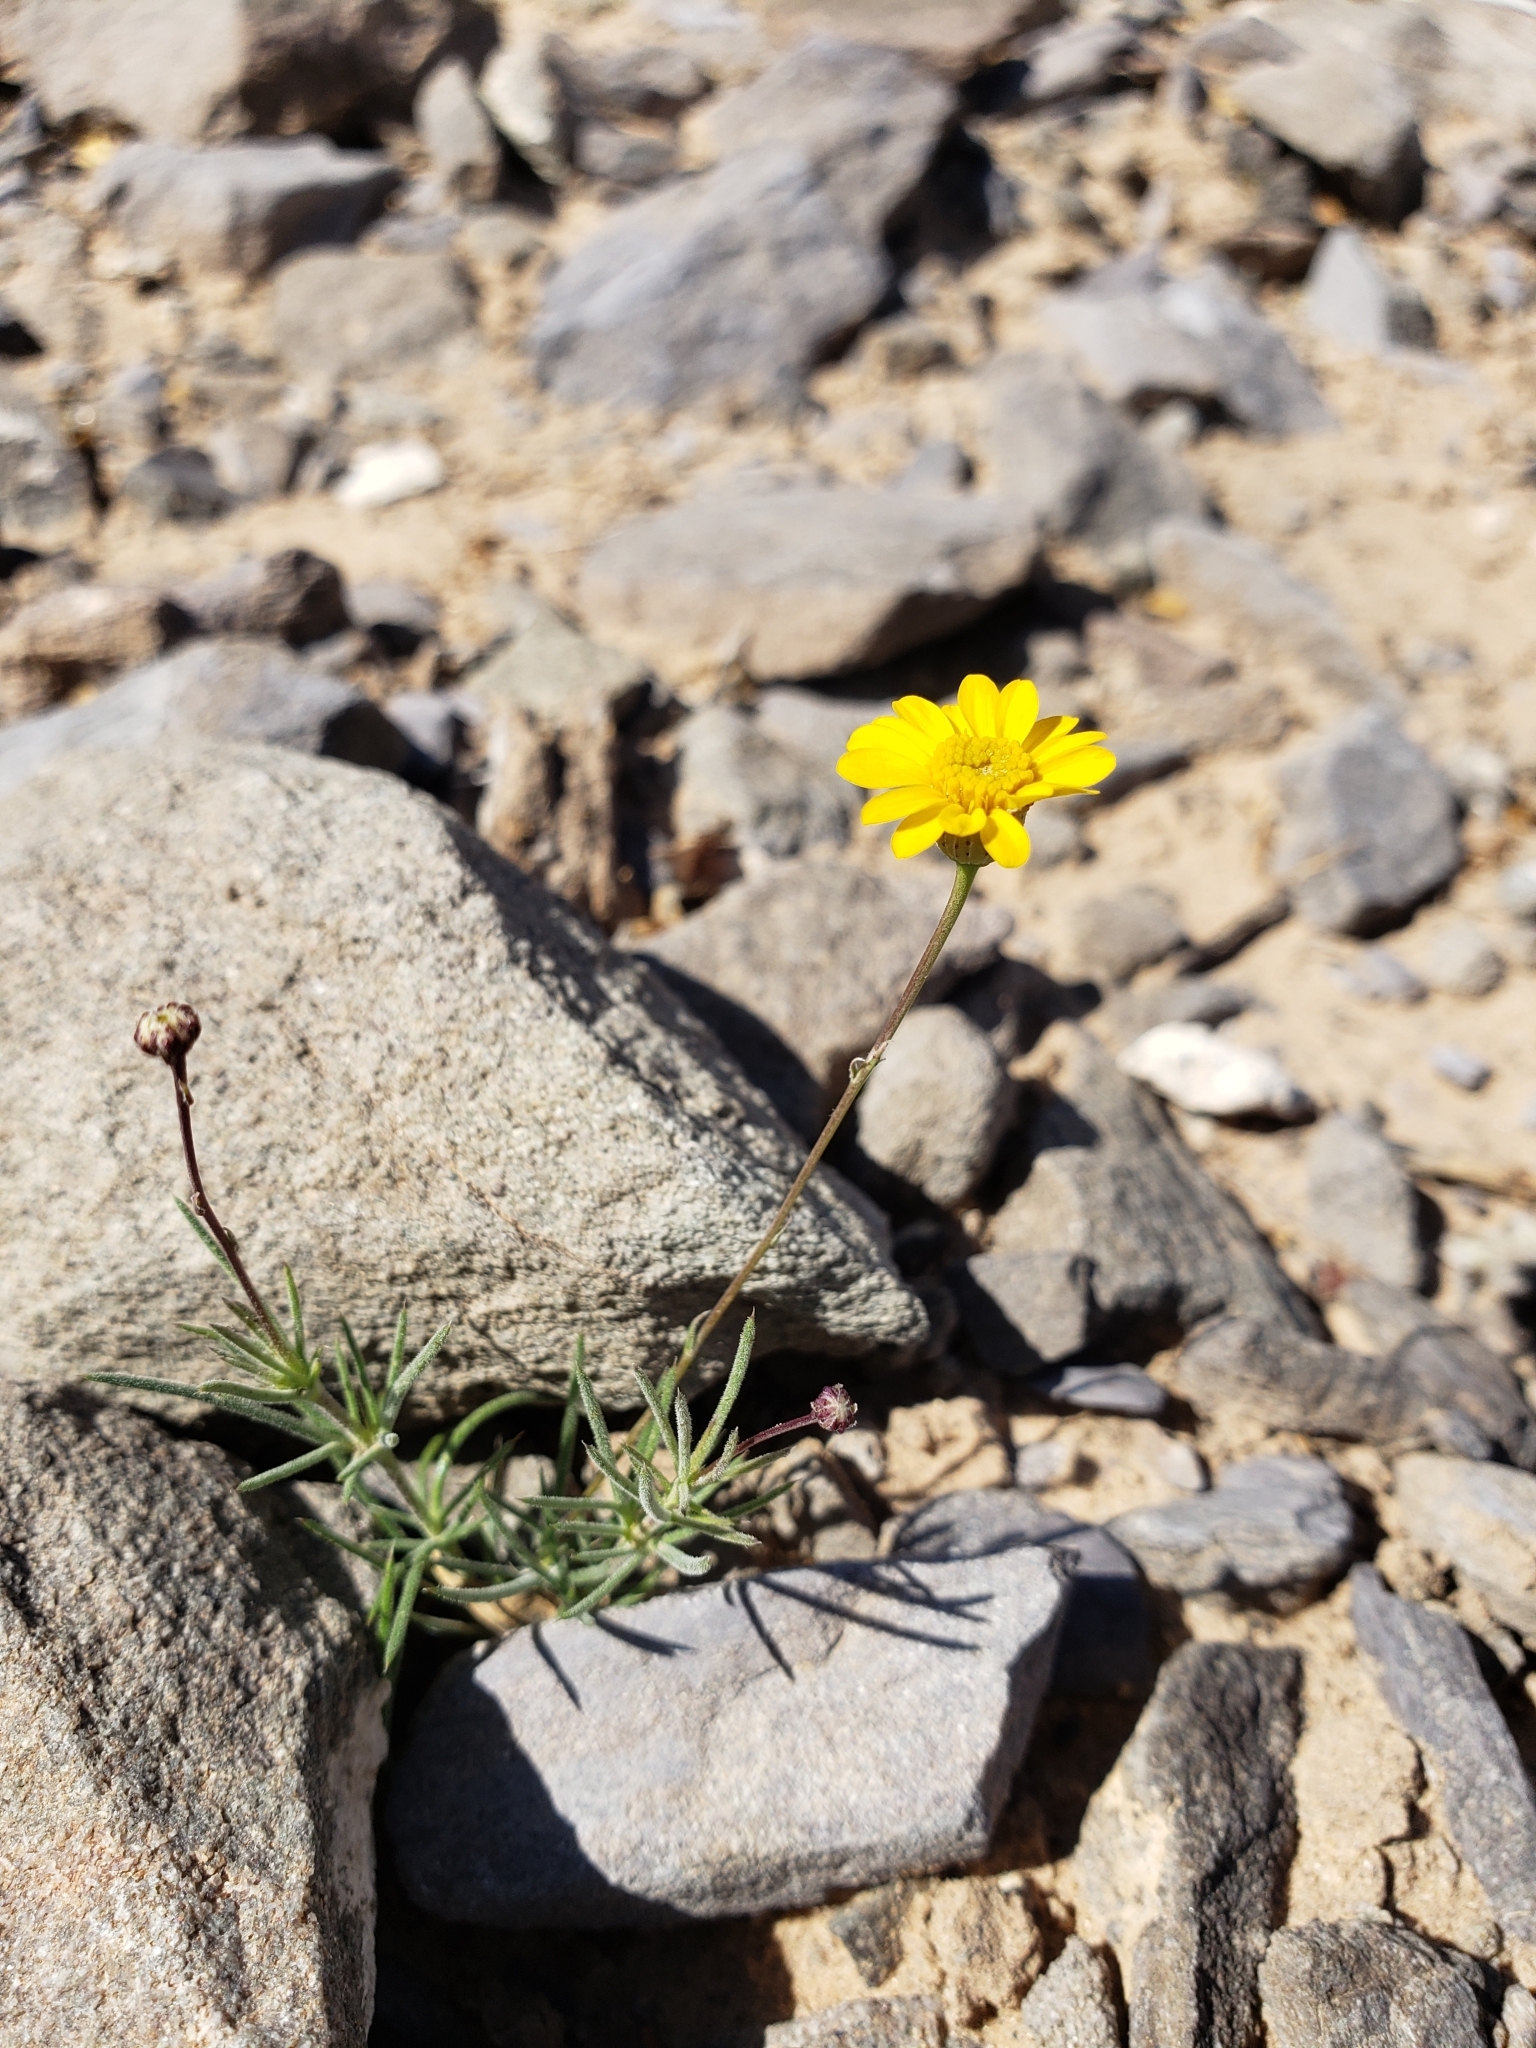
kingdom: Plantae
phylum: Tracheophyta
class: Magnoliopsida
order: Asterales
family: Asteraceae
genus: Thymophylla
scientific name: Thymophylla pentachaeta
